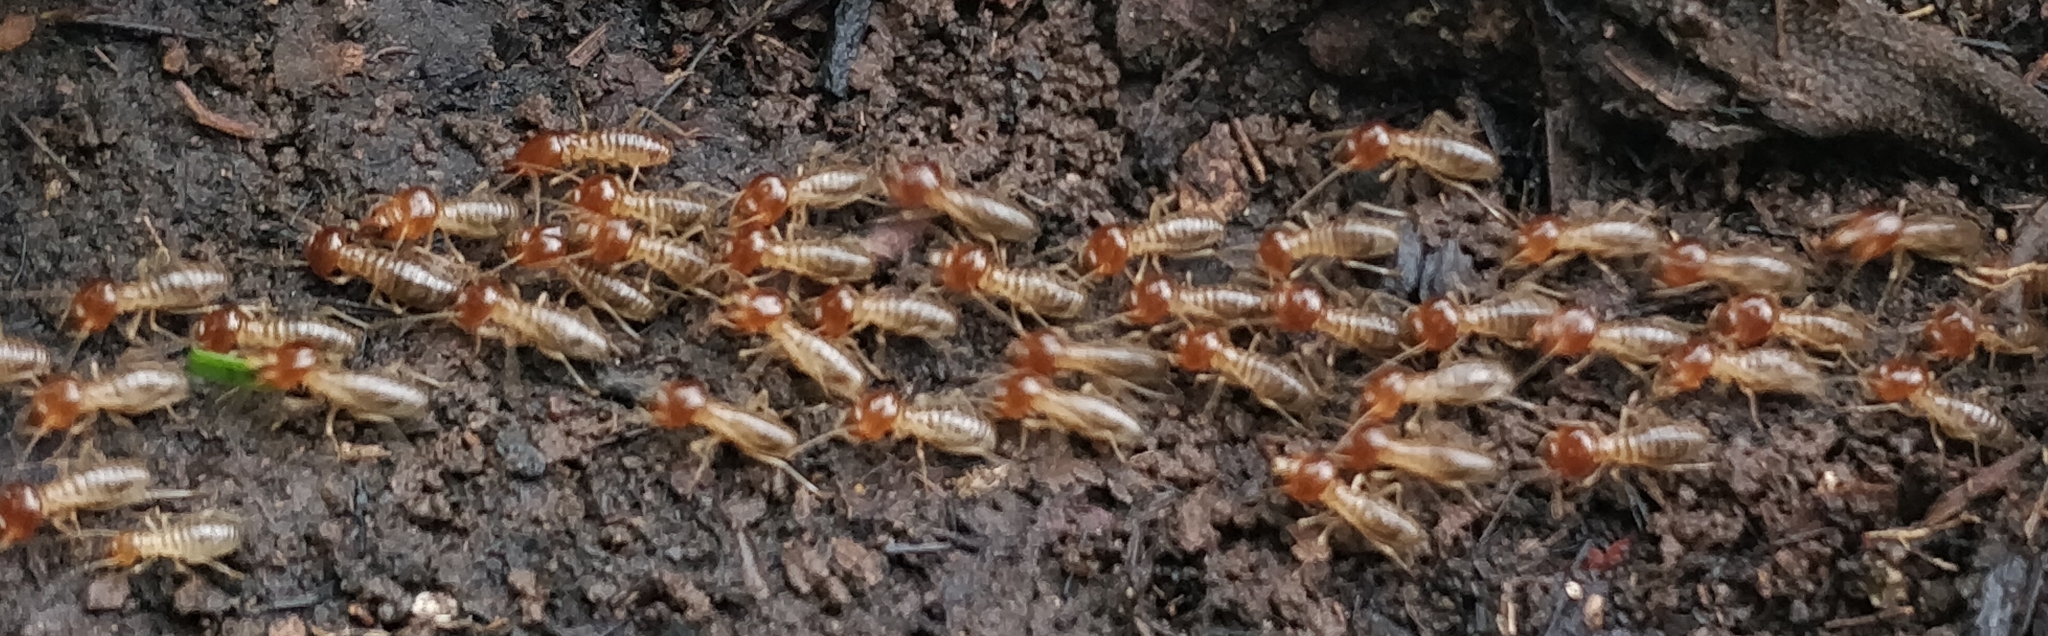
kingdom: Animalia
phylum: Arthropoda
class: Insecta
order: Blattodea
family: Termitidae
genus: Macrotermes
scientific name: Macrotermes convulsionarius
